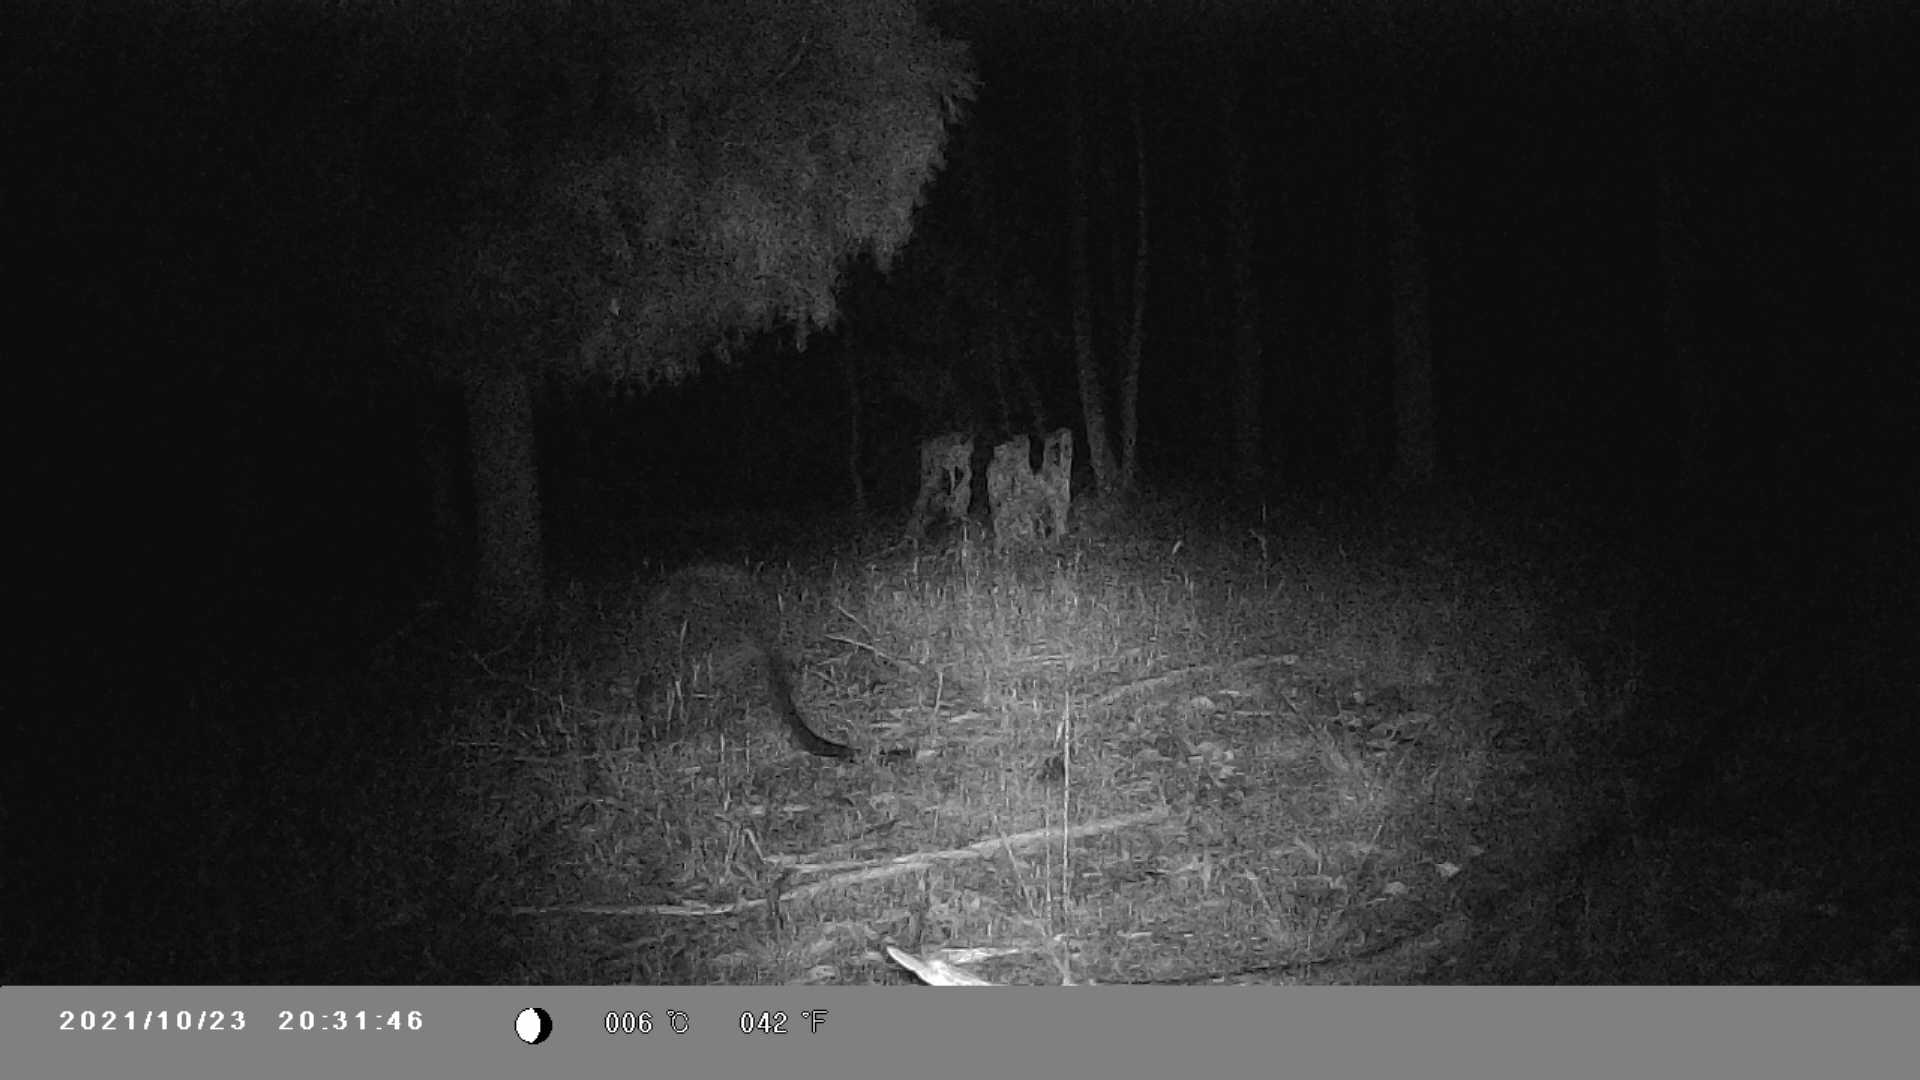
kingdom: Animalia
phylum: Chordata
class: Mammalia
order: Diprotodontia
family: Macropodidae
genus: Wallabia
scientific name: Wallabia bicolor
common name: Swamp wallaby
